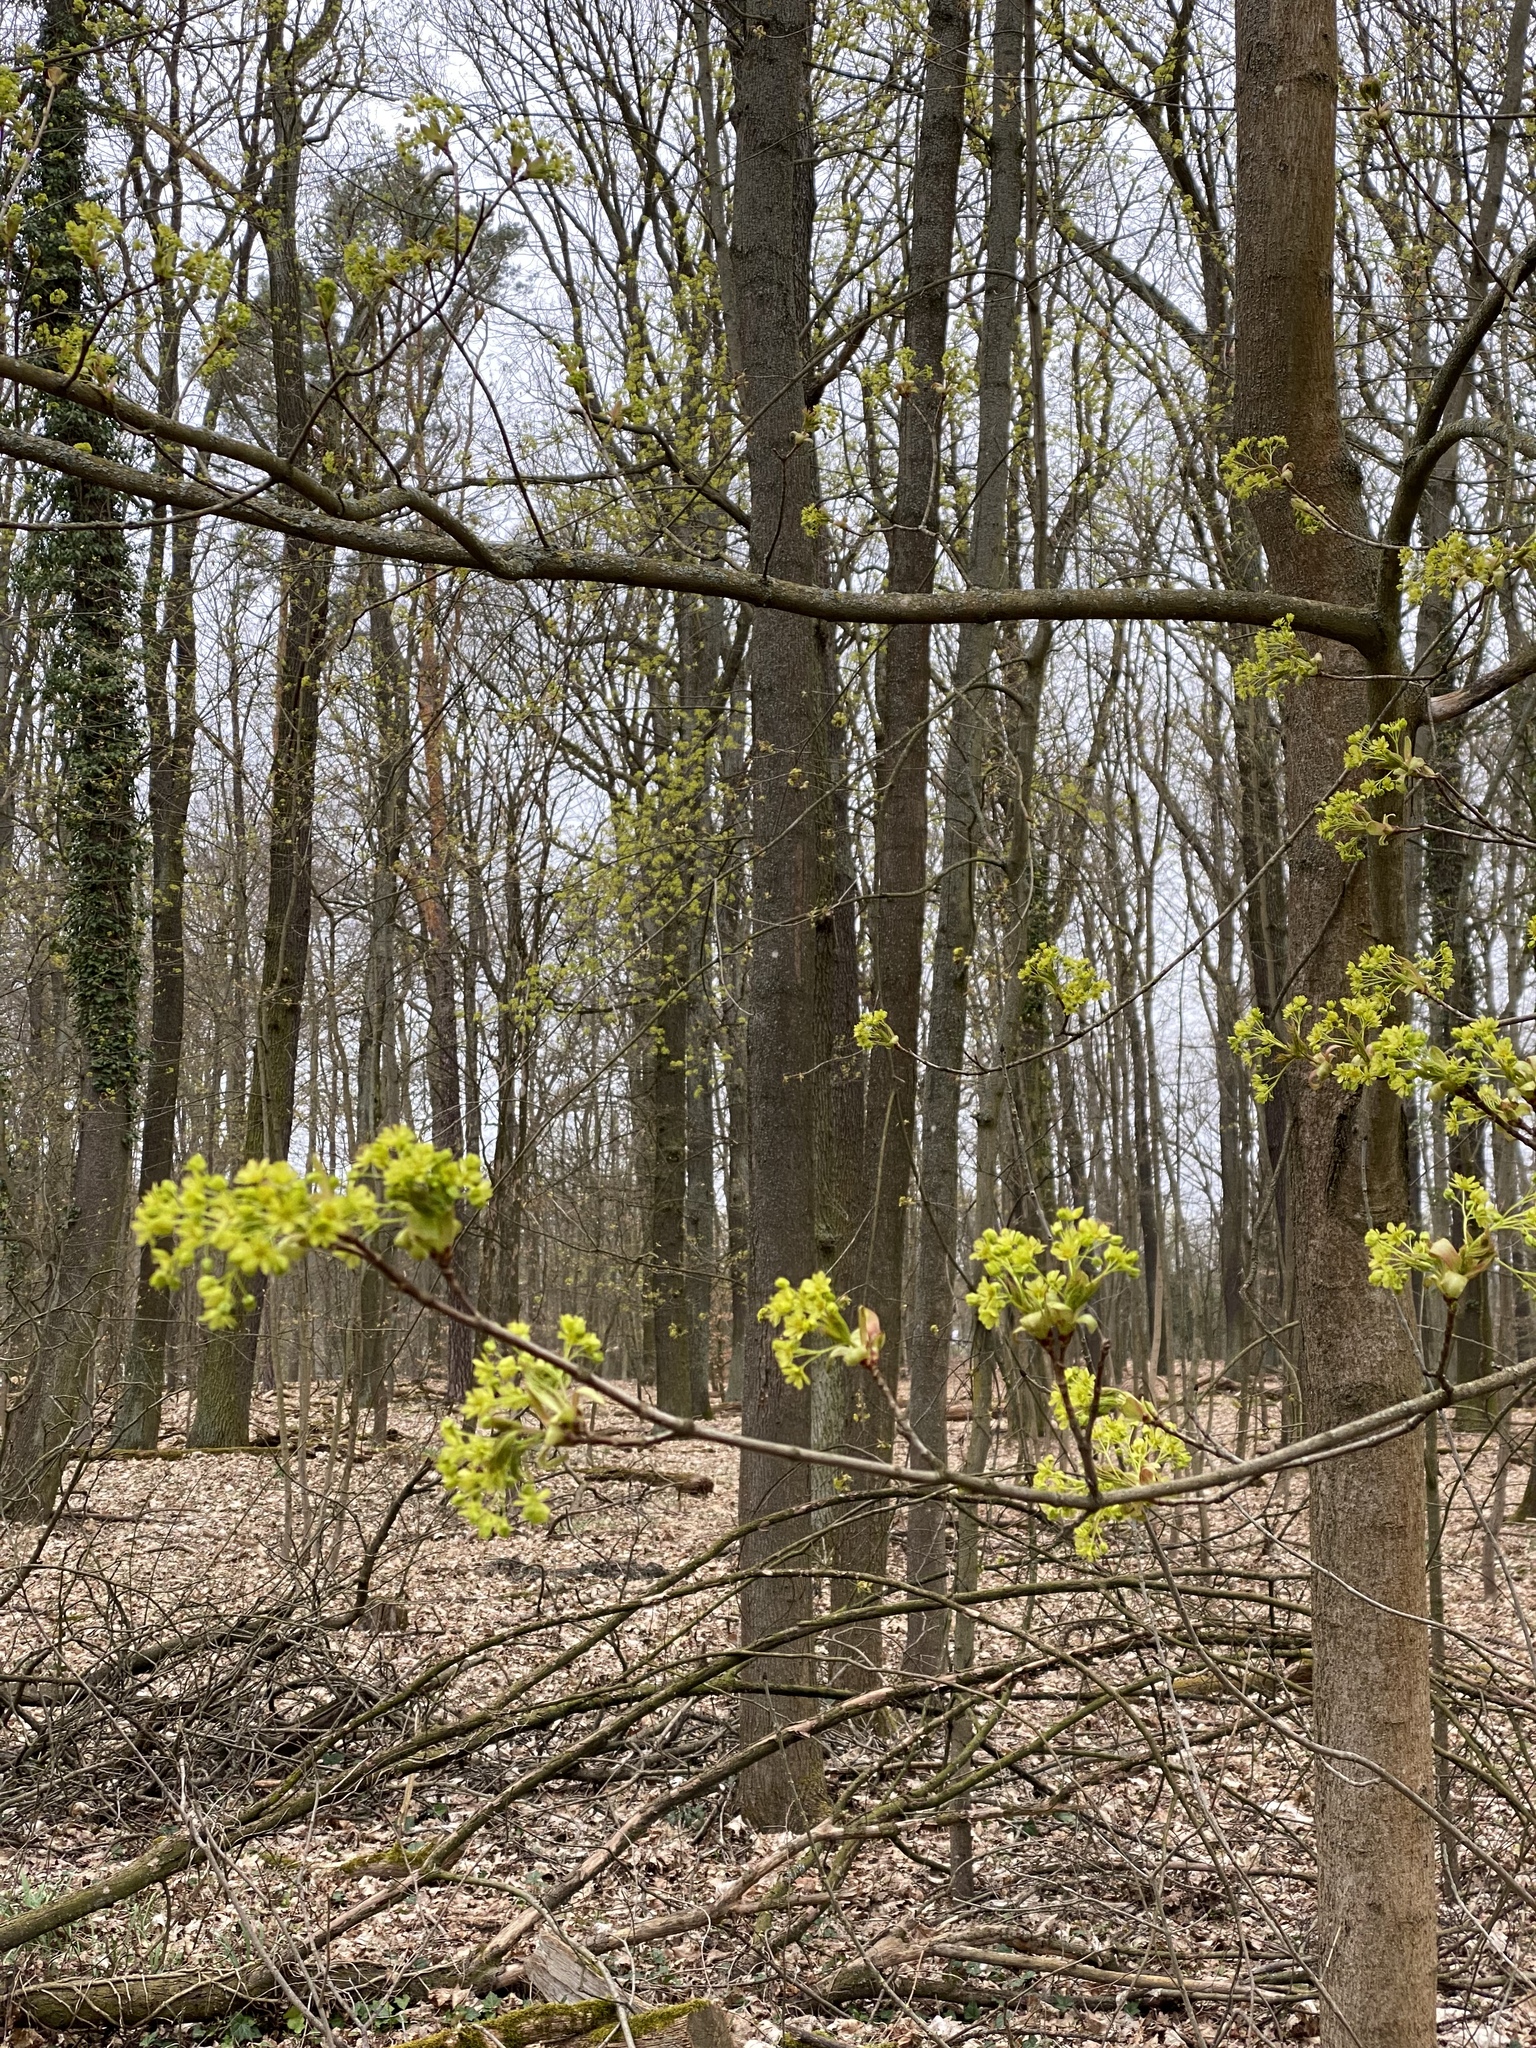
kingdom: Plantae
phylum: Tracheophyta
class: Magnoliopsida
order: Sapindales
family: Sapindaceae
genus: Acer
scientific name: Acer platanoides
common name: Norway maple
